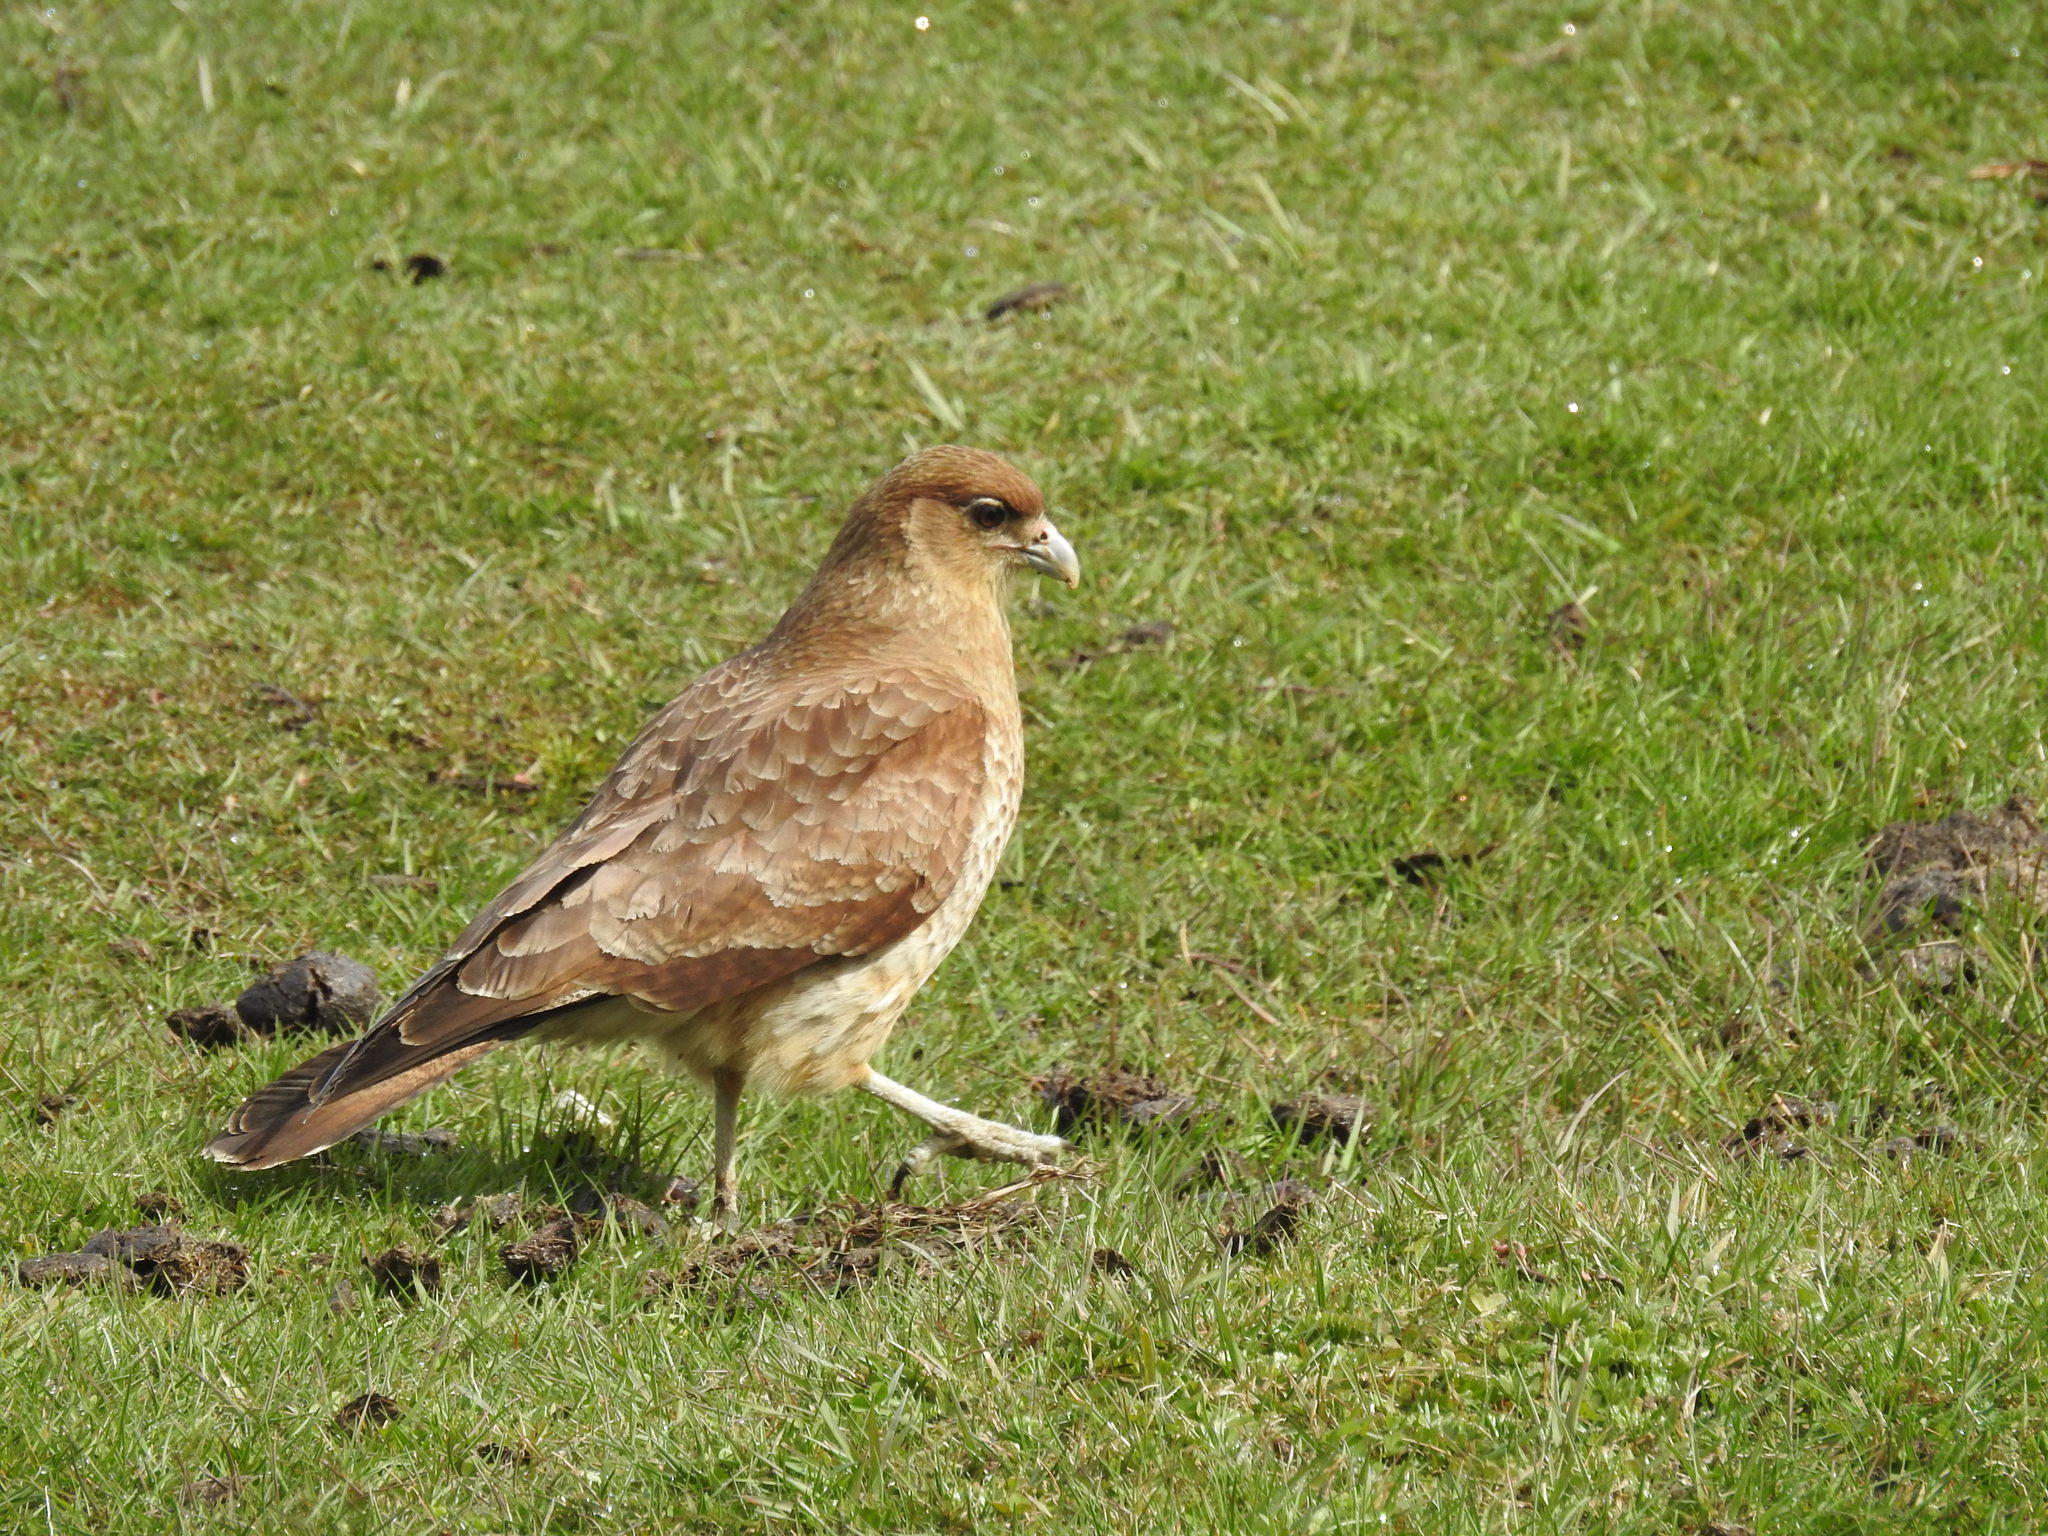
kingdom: Animalia
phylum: Chordata
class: Aves
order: Falconiformes
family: Falconidae
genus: Daptrius
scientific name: Daptrius
